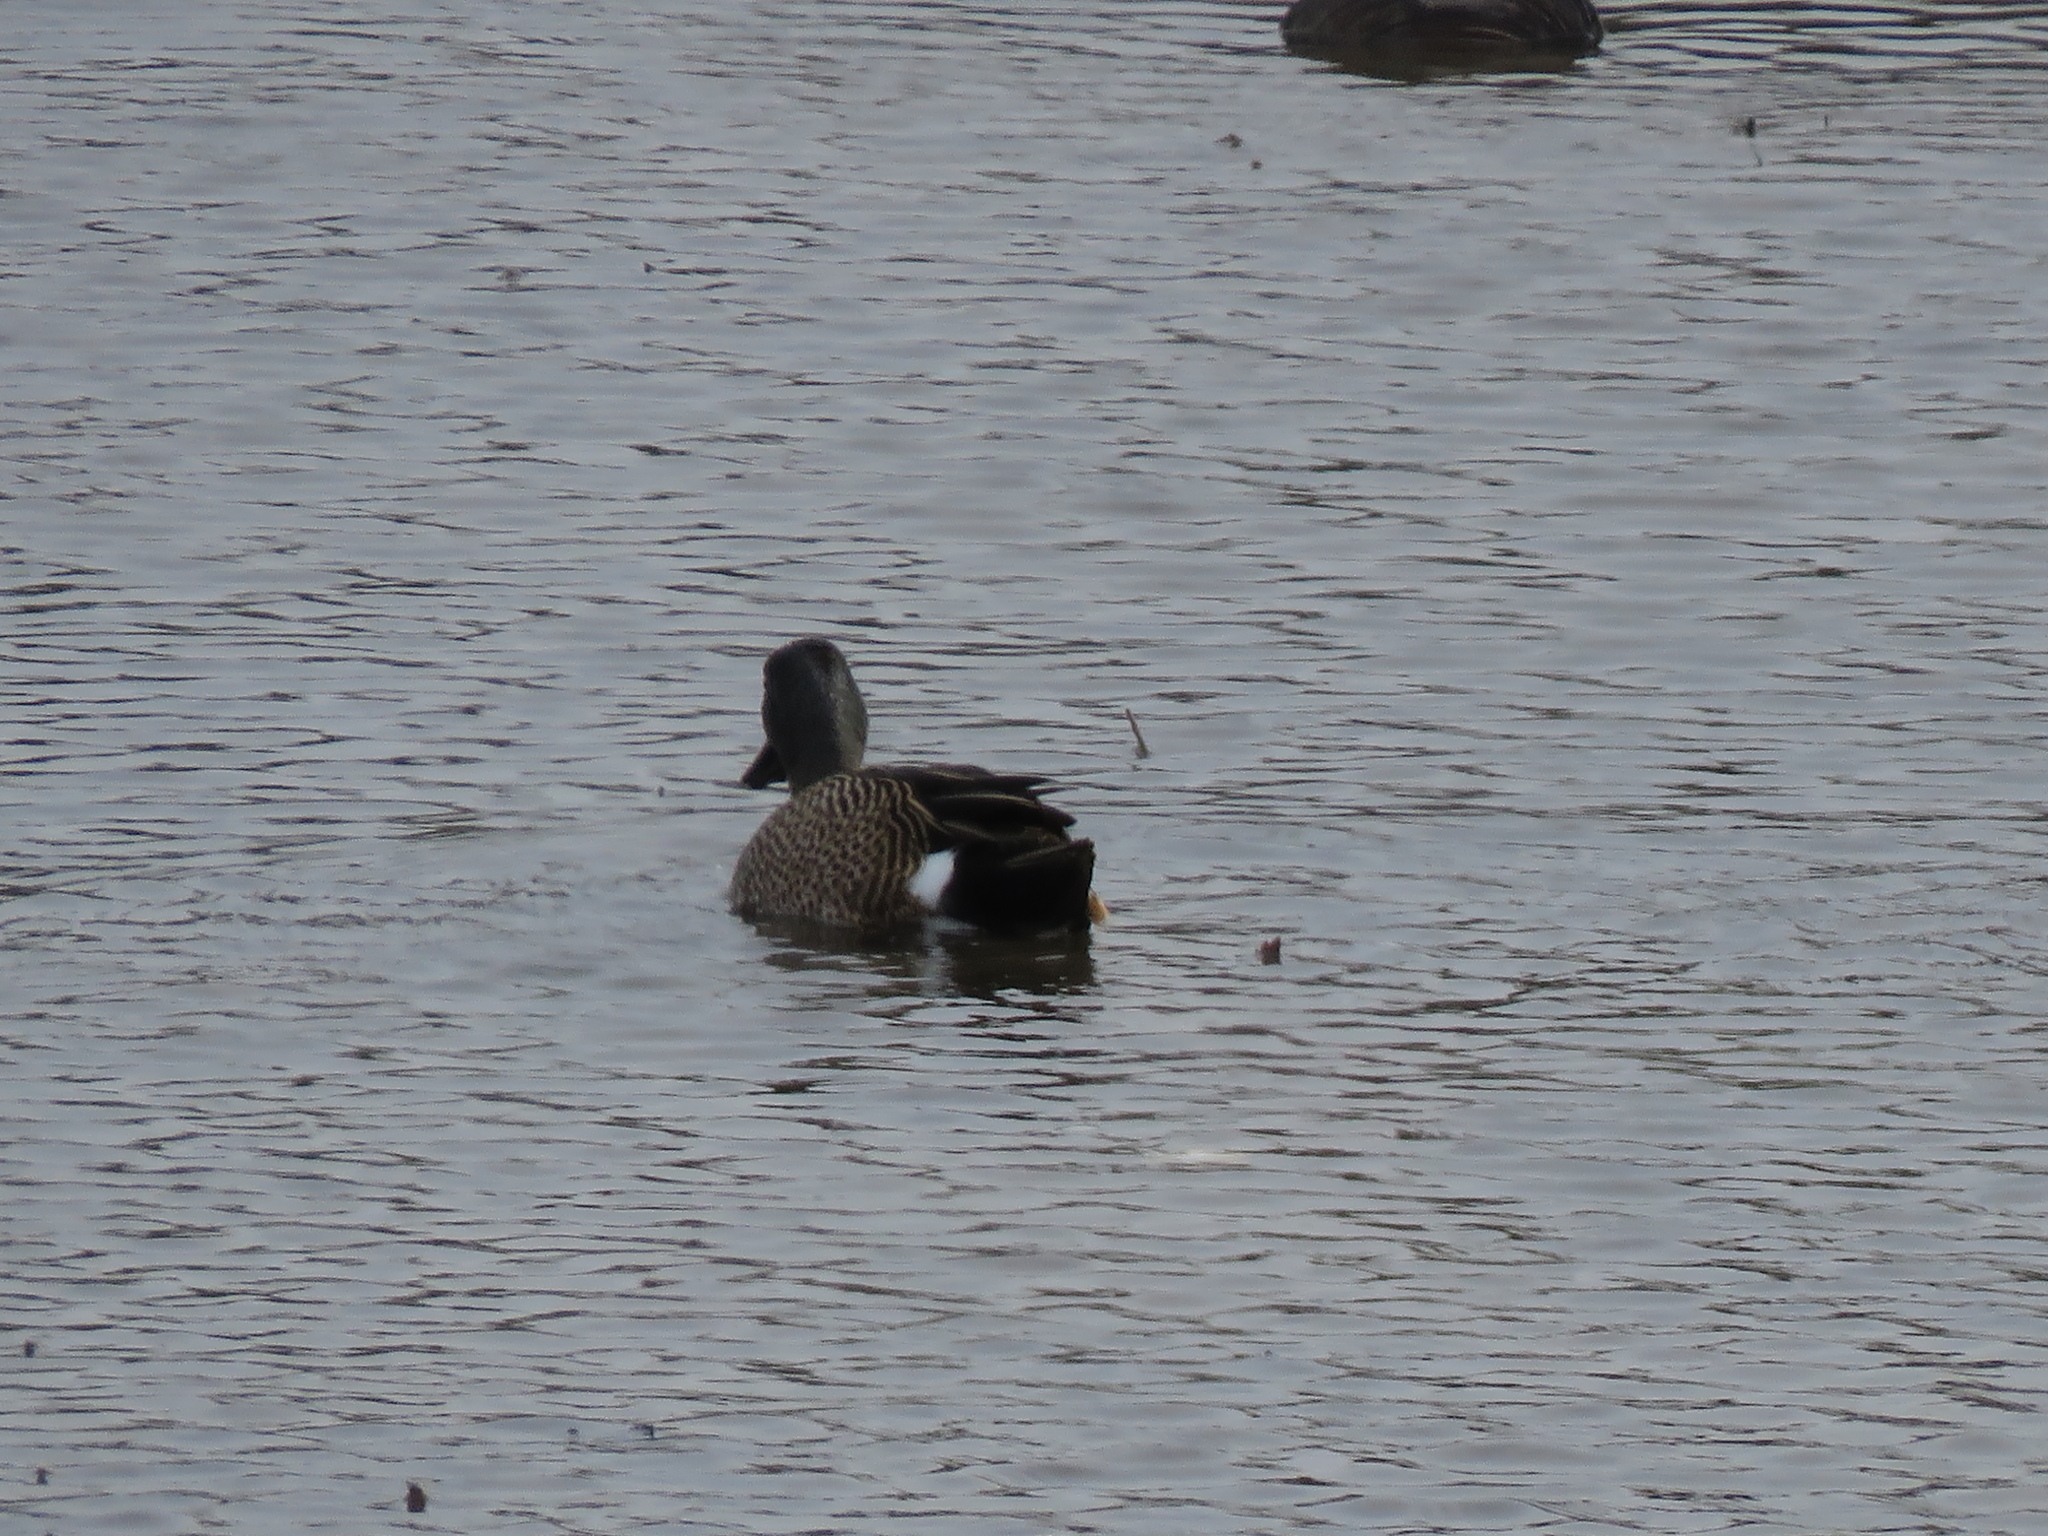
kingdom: Animalia
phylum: Chordata
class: Aves
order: Anseriformes
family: Anatidae
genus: Spatula
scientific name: Spatula discors
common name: Blue-winged teal
